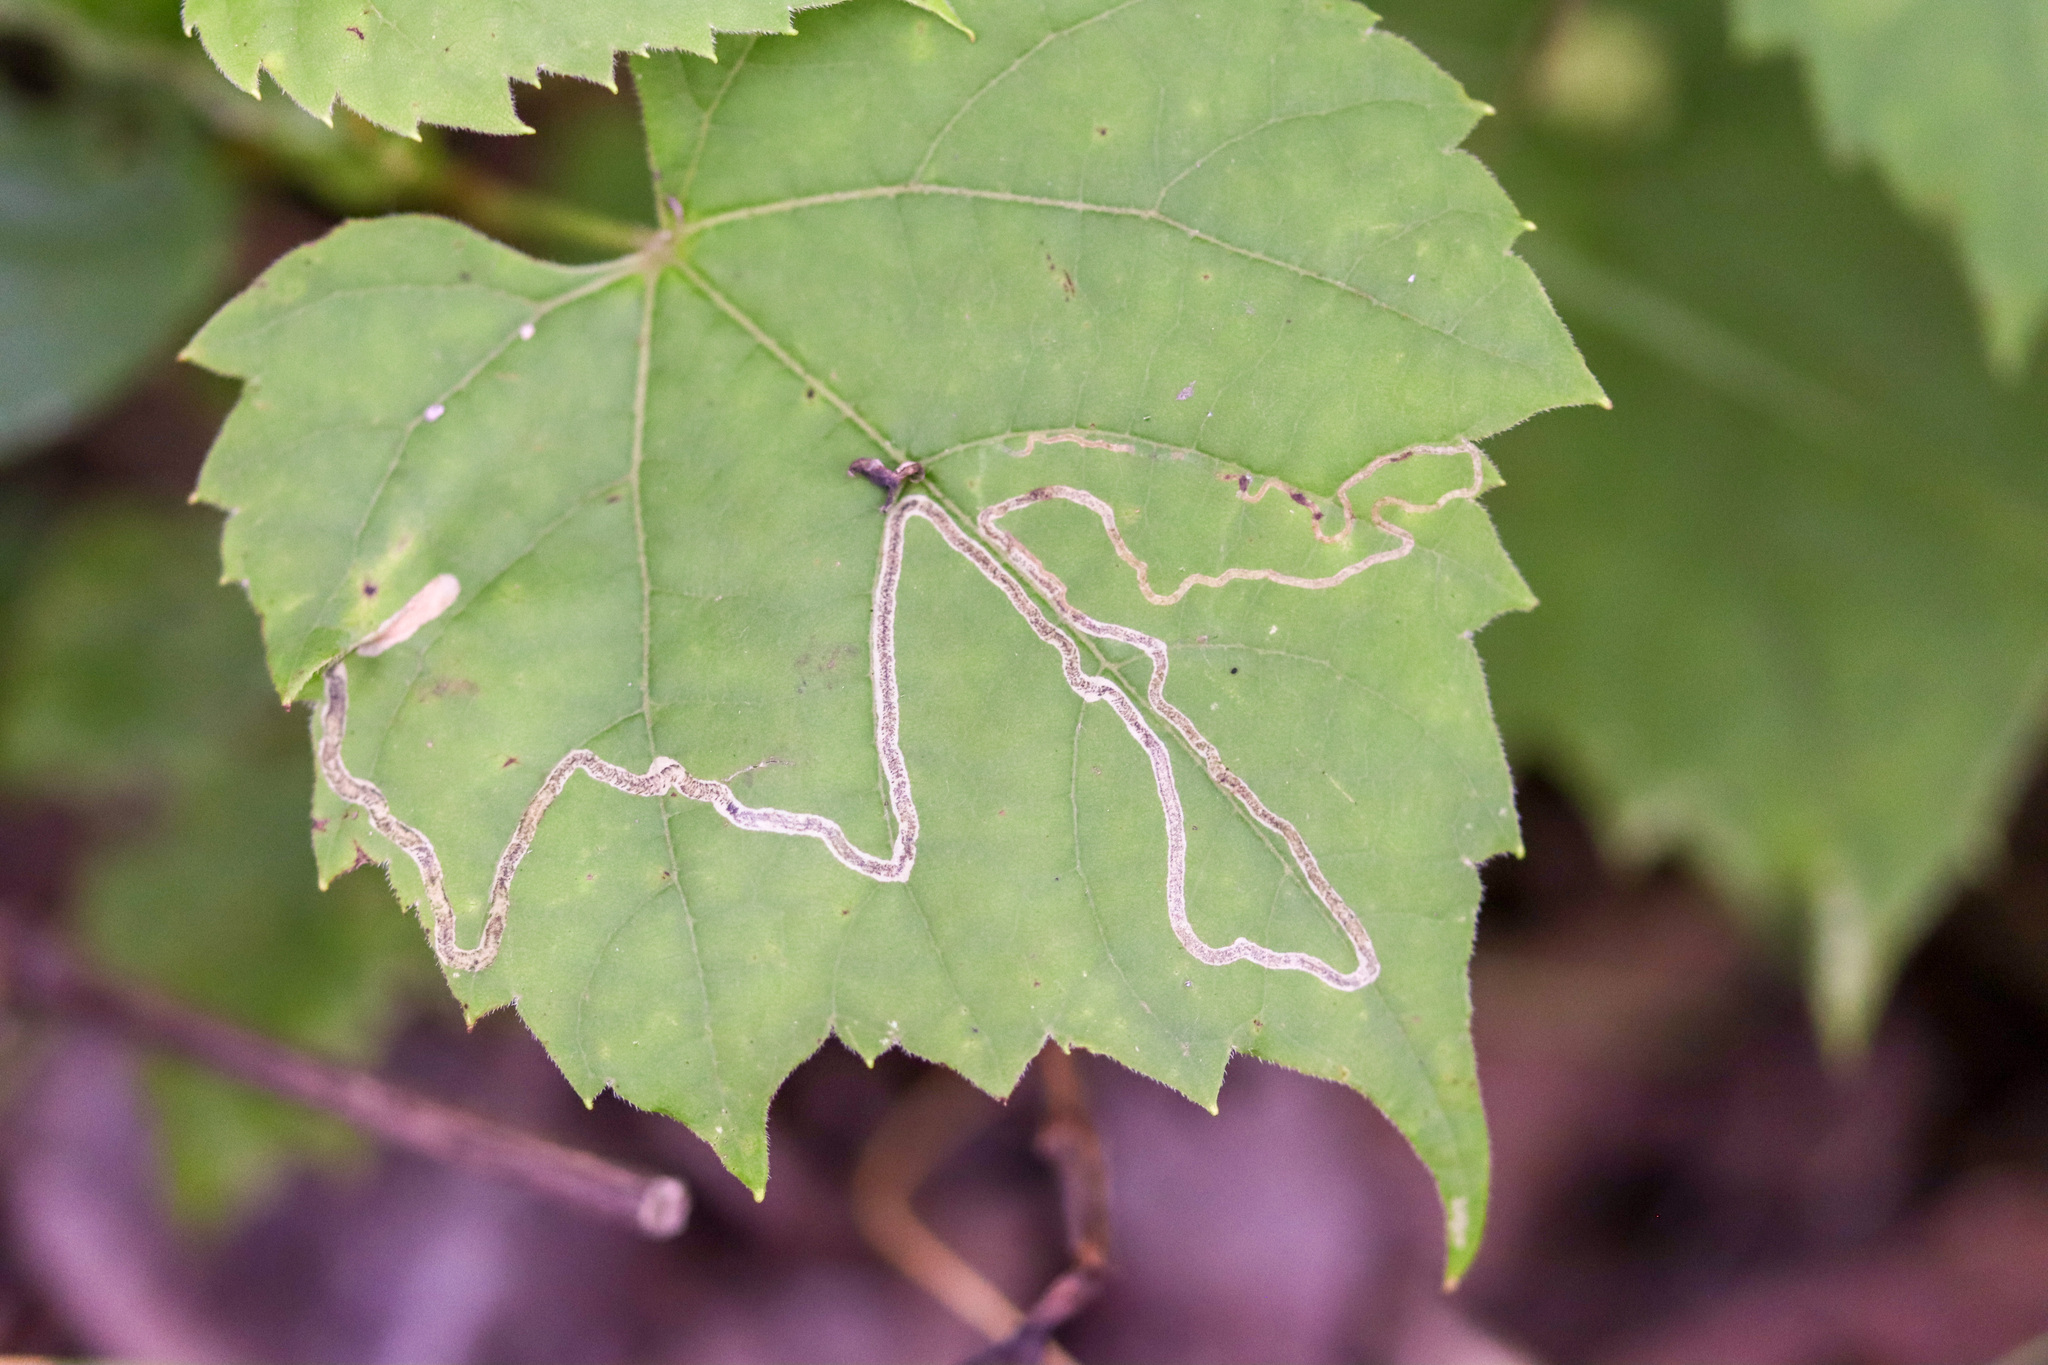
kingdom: Animalia
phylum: Arthropoda
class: Insecta
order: Lepidoptera
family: Gracillariidae
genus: Phyllocnistis
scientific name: Phyllocnistis vitifoliella
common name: Grape leaf-miner moth
